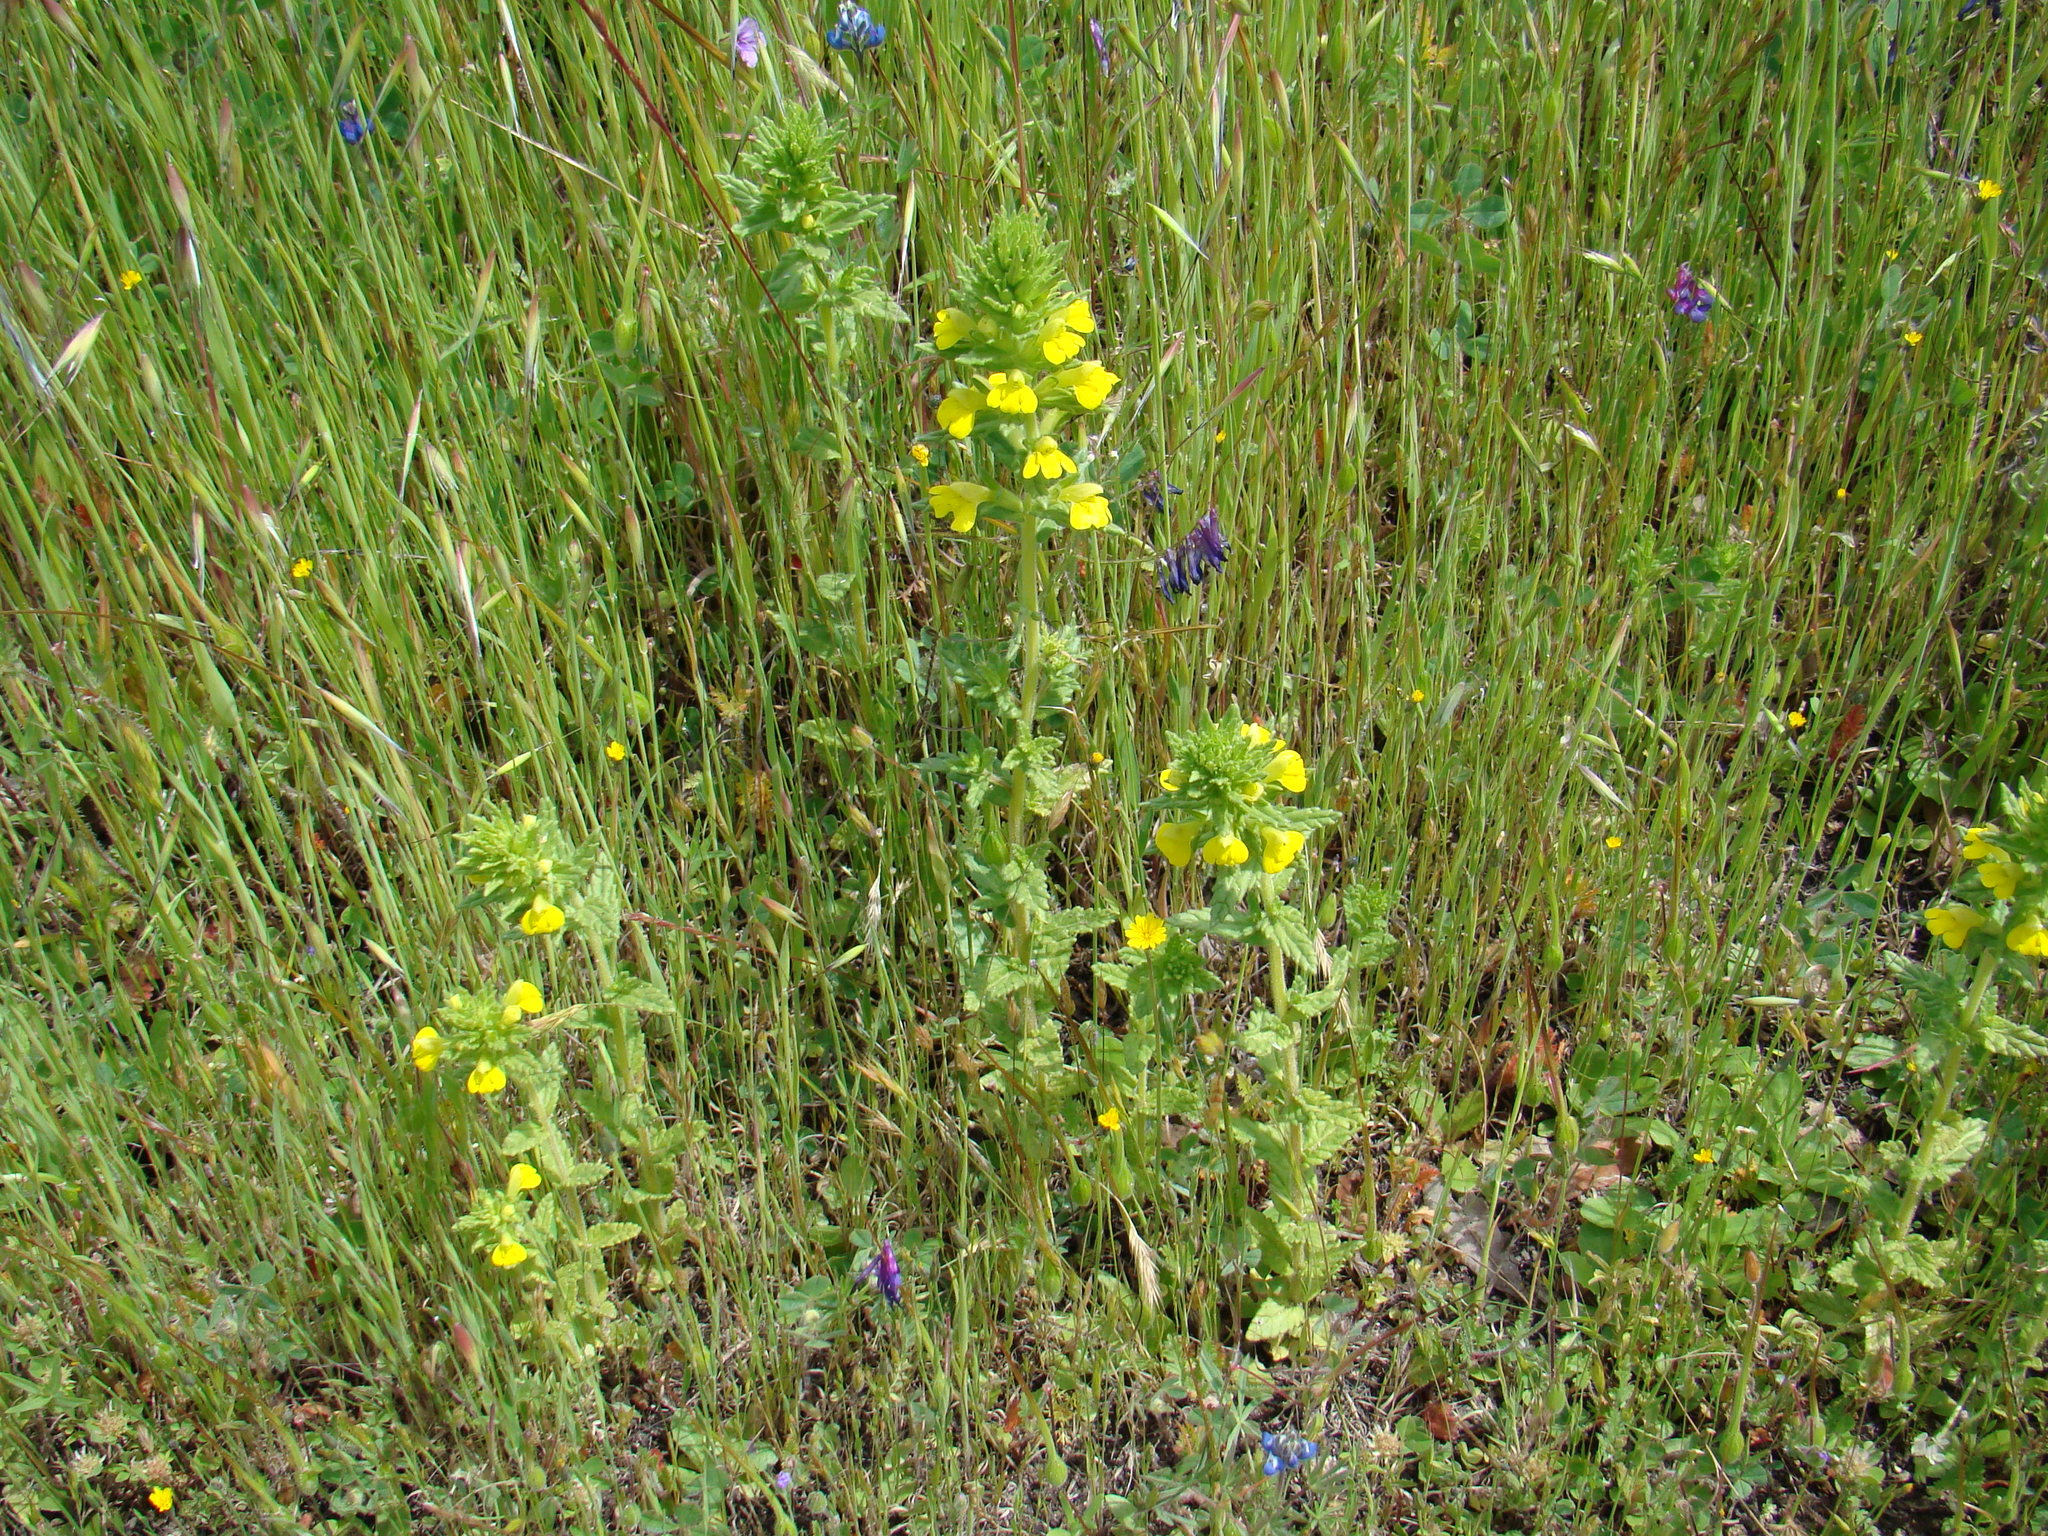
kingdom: Plantae
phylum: Tracheophyta
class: Magnoliopsida
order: Lamiales
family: Orobanchaceae
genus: Bellardia
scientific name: Bellardia viscosa
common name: Sticky parentucellia
